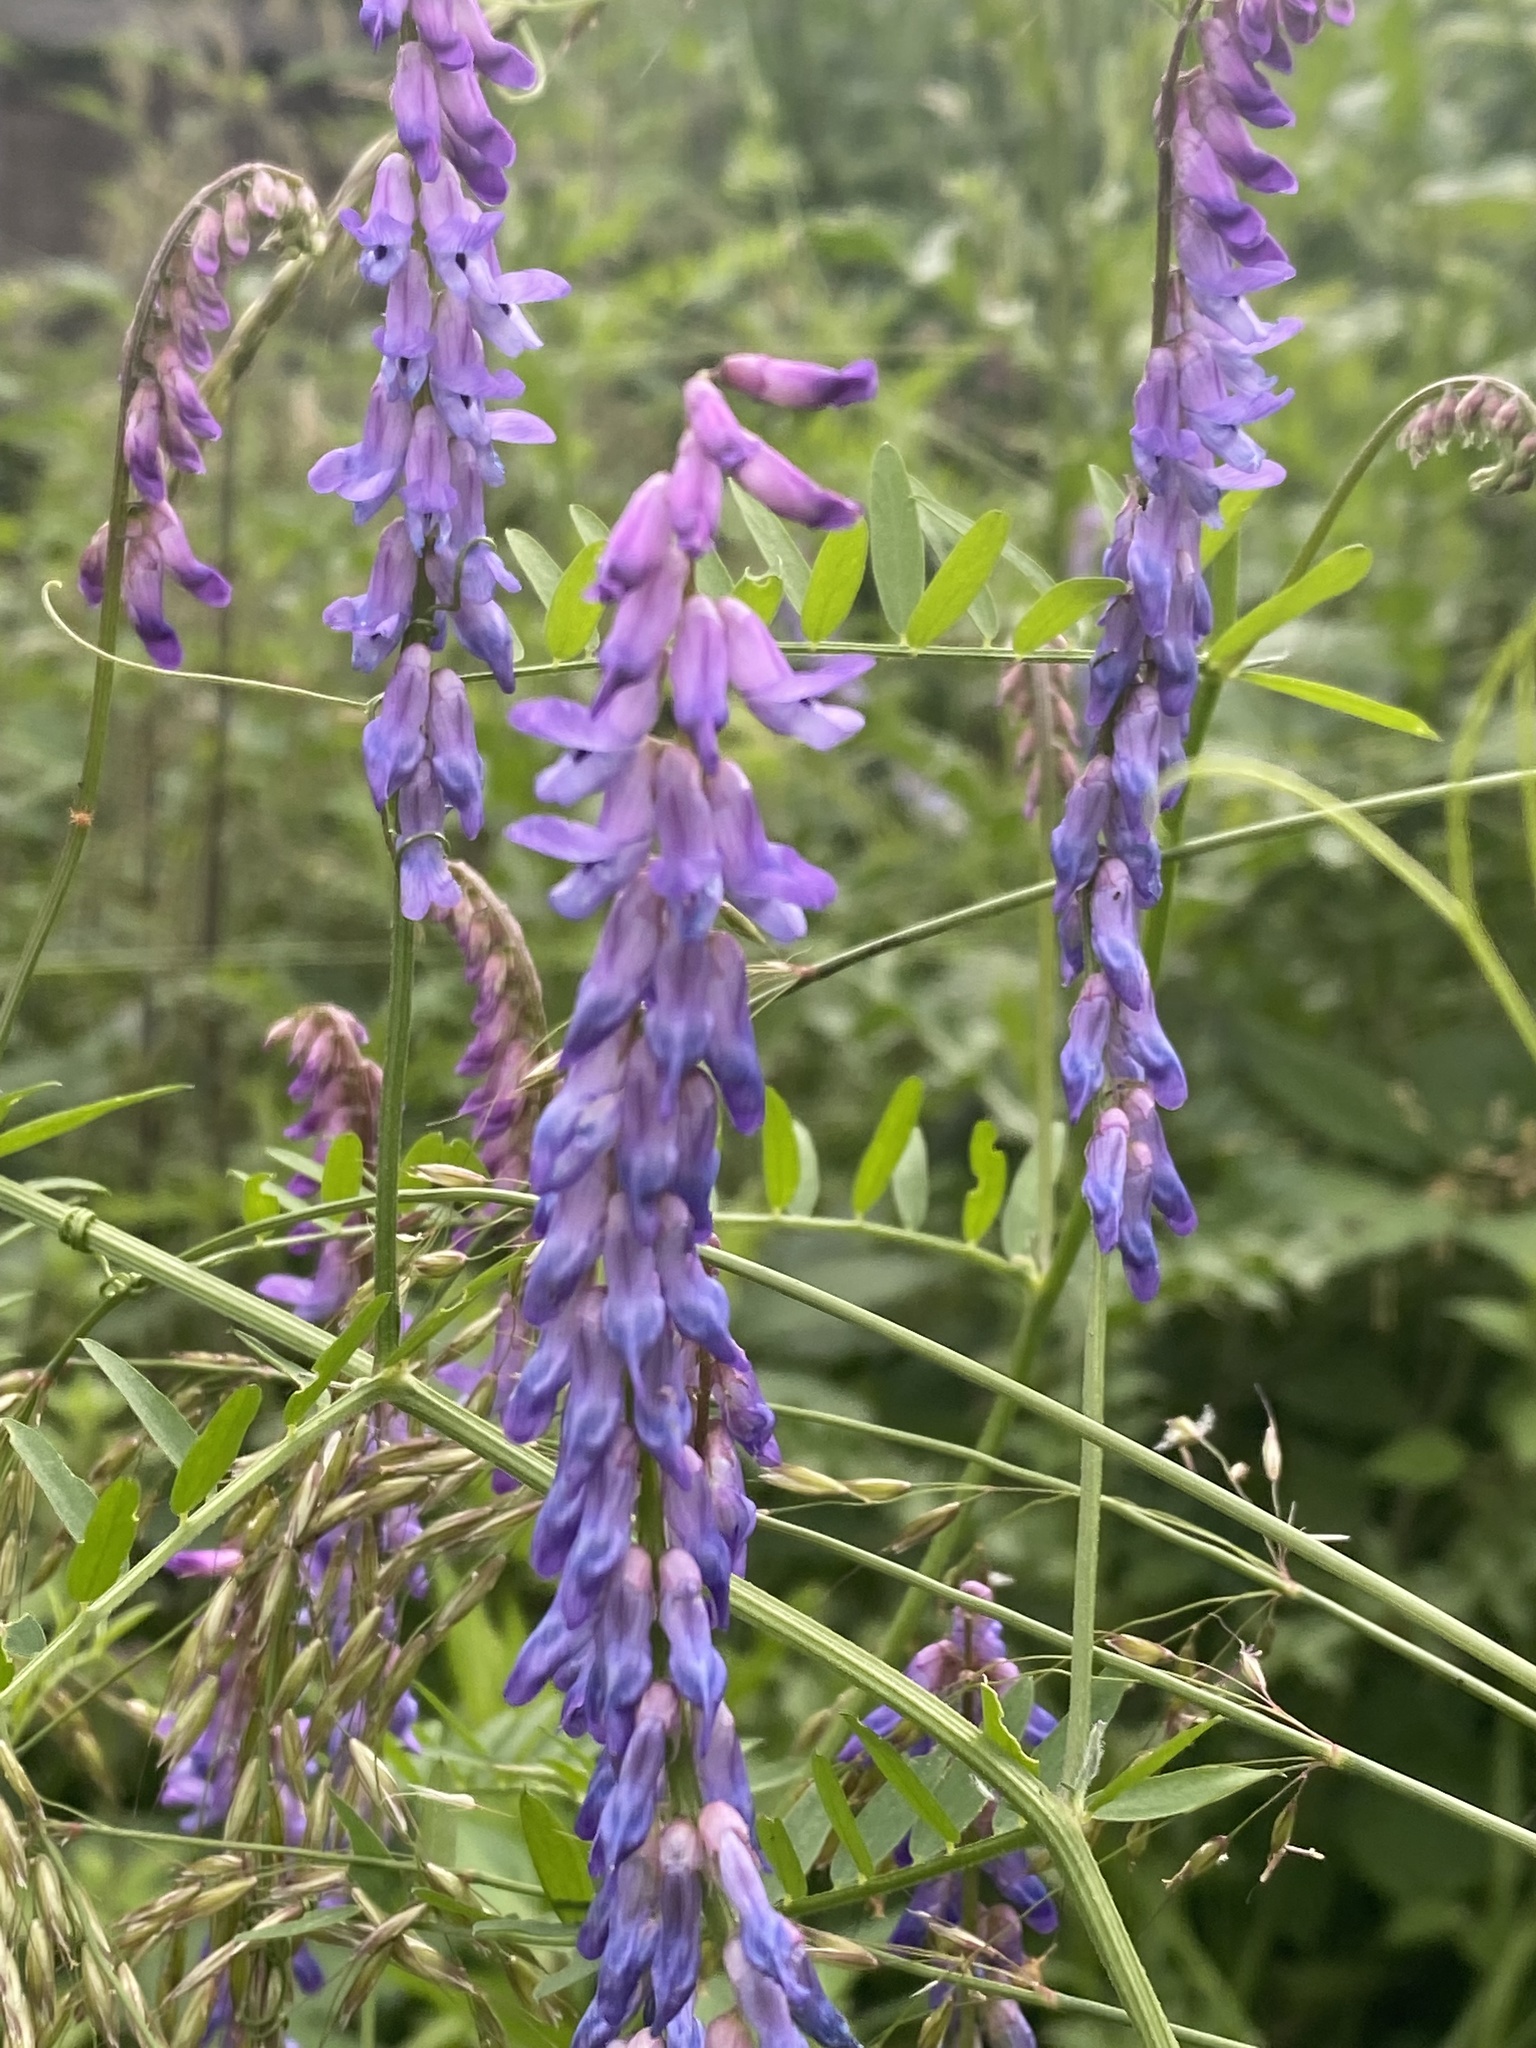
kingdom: Plantae
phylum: Tracheophyta
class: Magnoliopsida
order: Fabales
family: Fabaceae
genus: Vicia
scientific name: Vicia cracca
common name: Bird vetch
